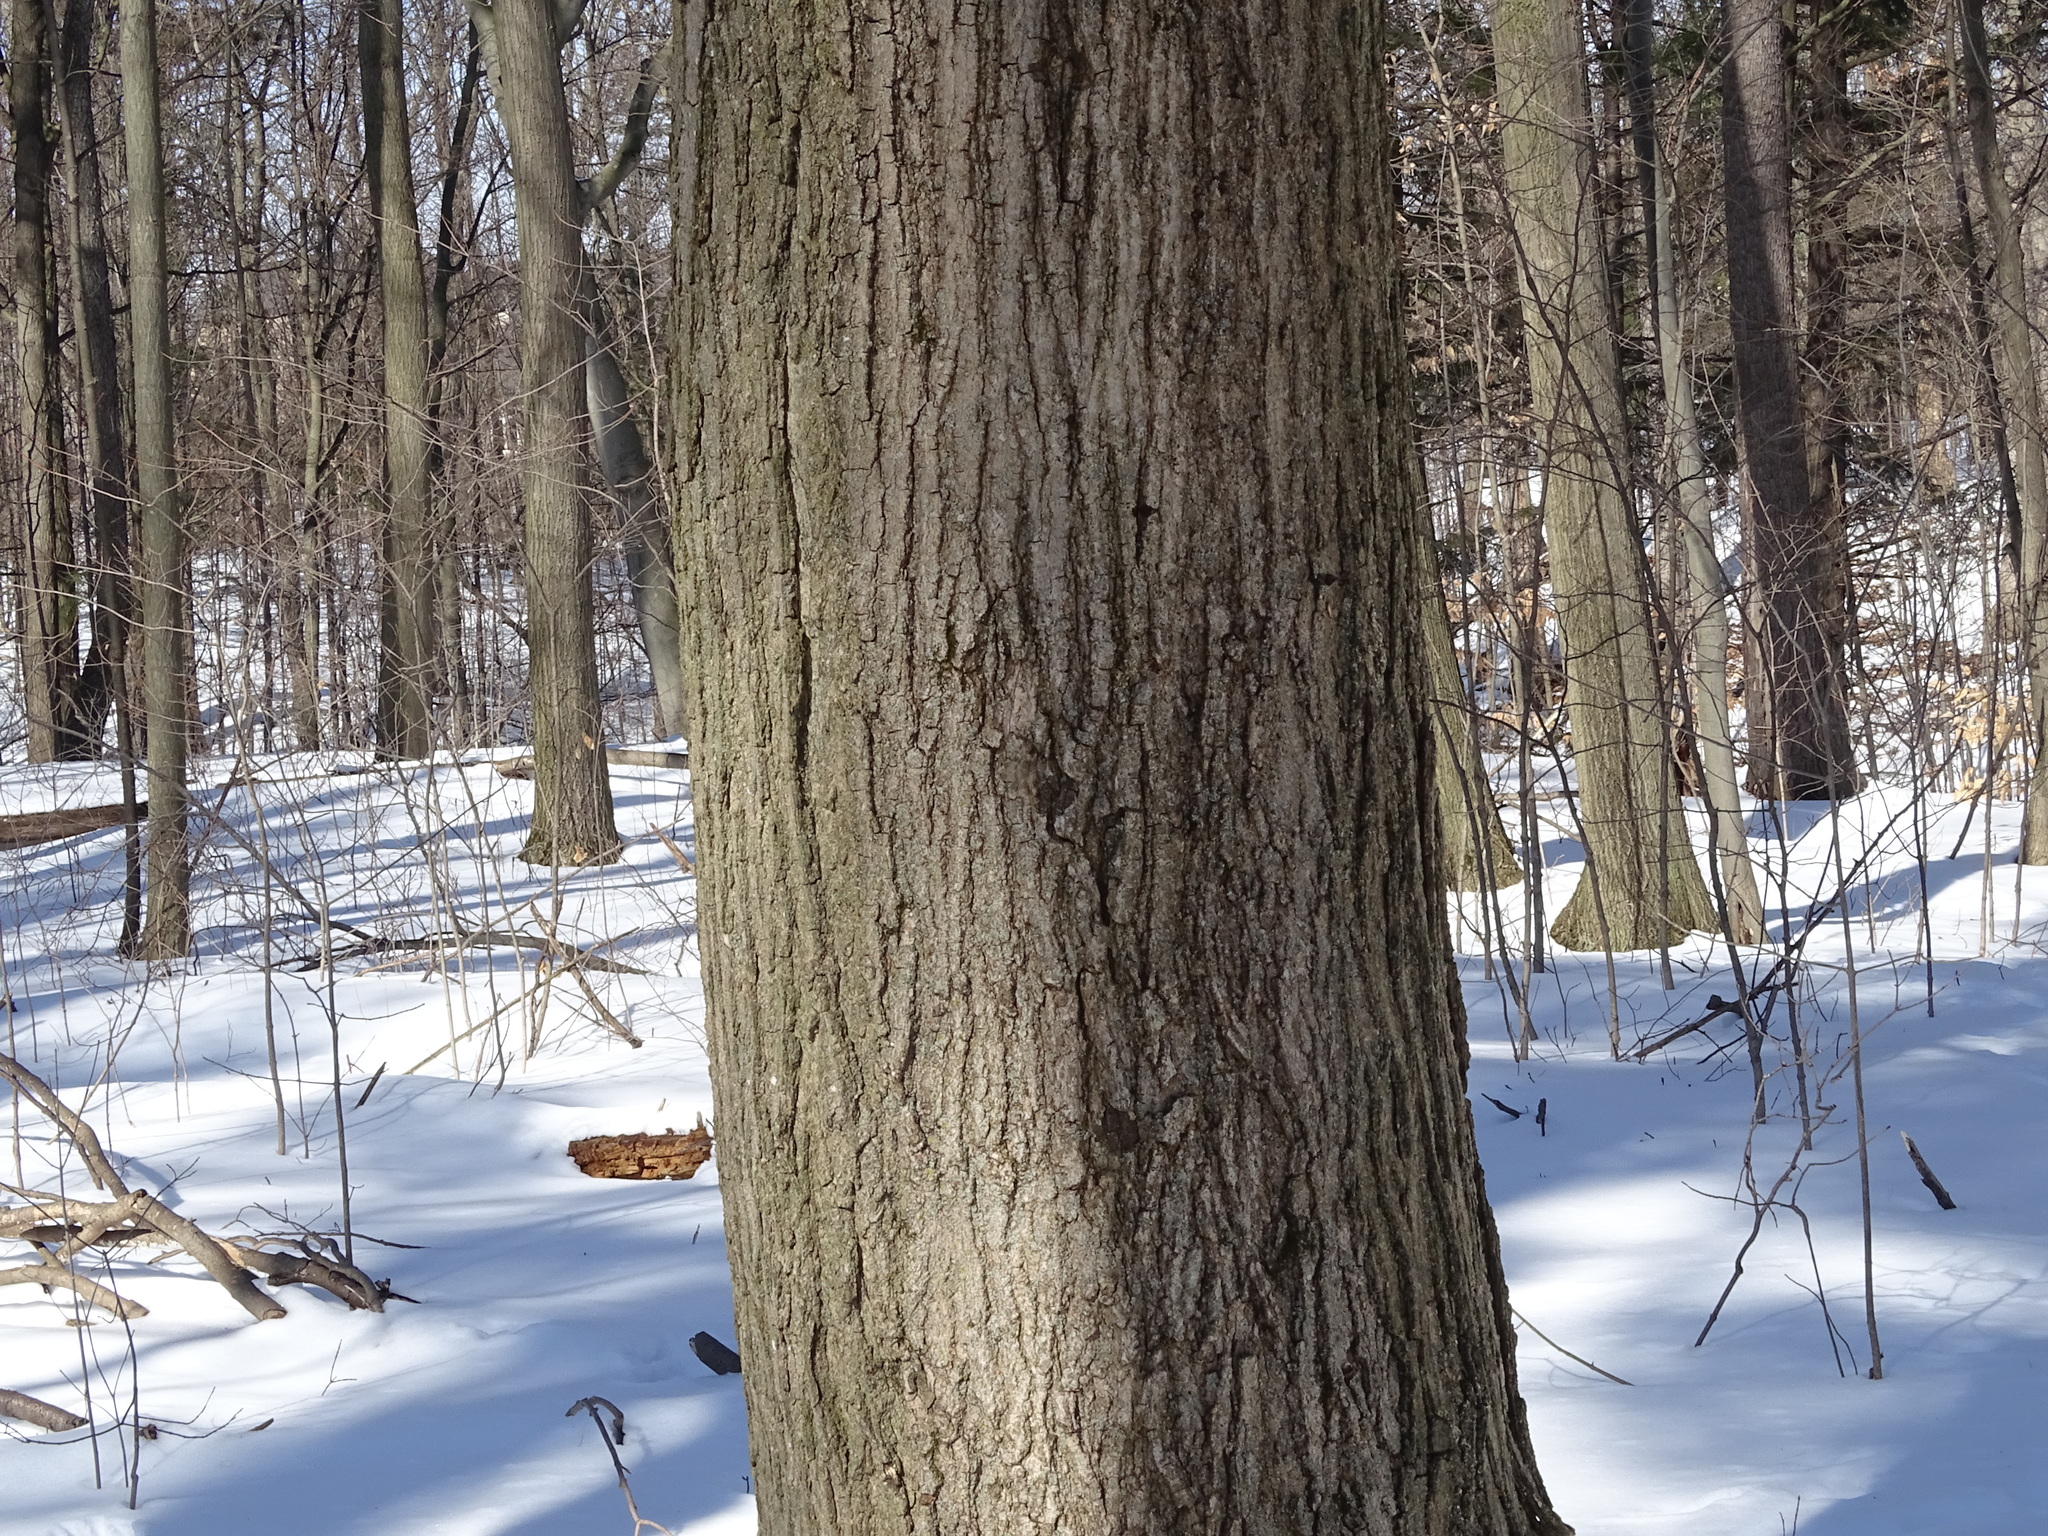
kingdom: Plantae
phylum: Tracheophyta
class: Magnoliopsida
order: Sapindales
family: Sapindaceae
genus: Acer
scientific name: Acer saccharum
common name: Sugar maple
